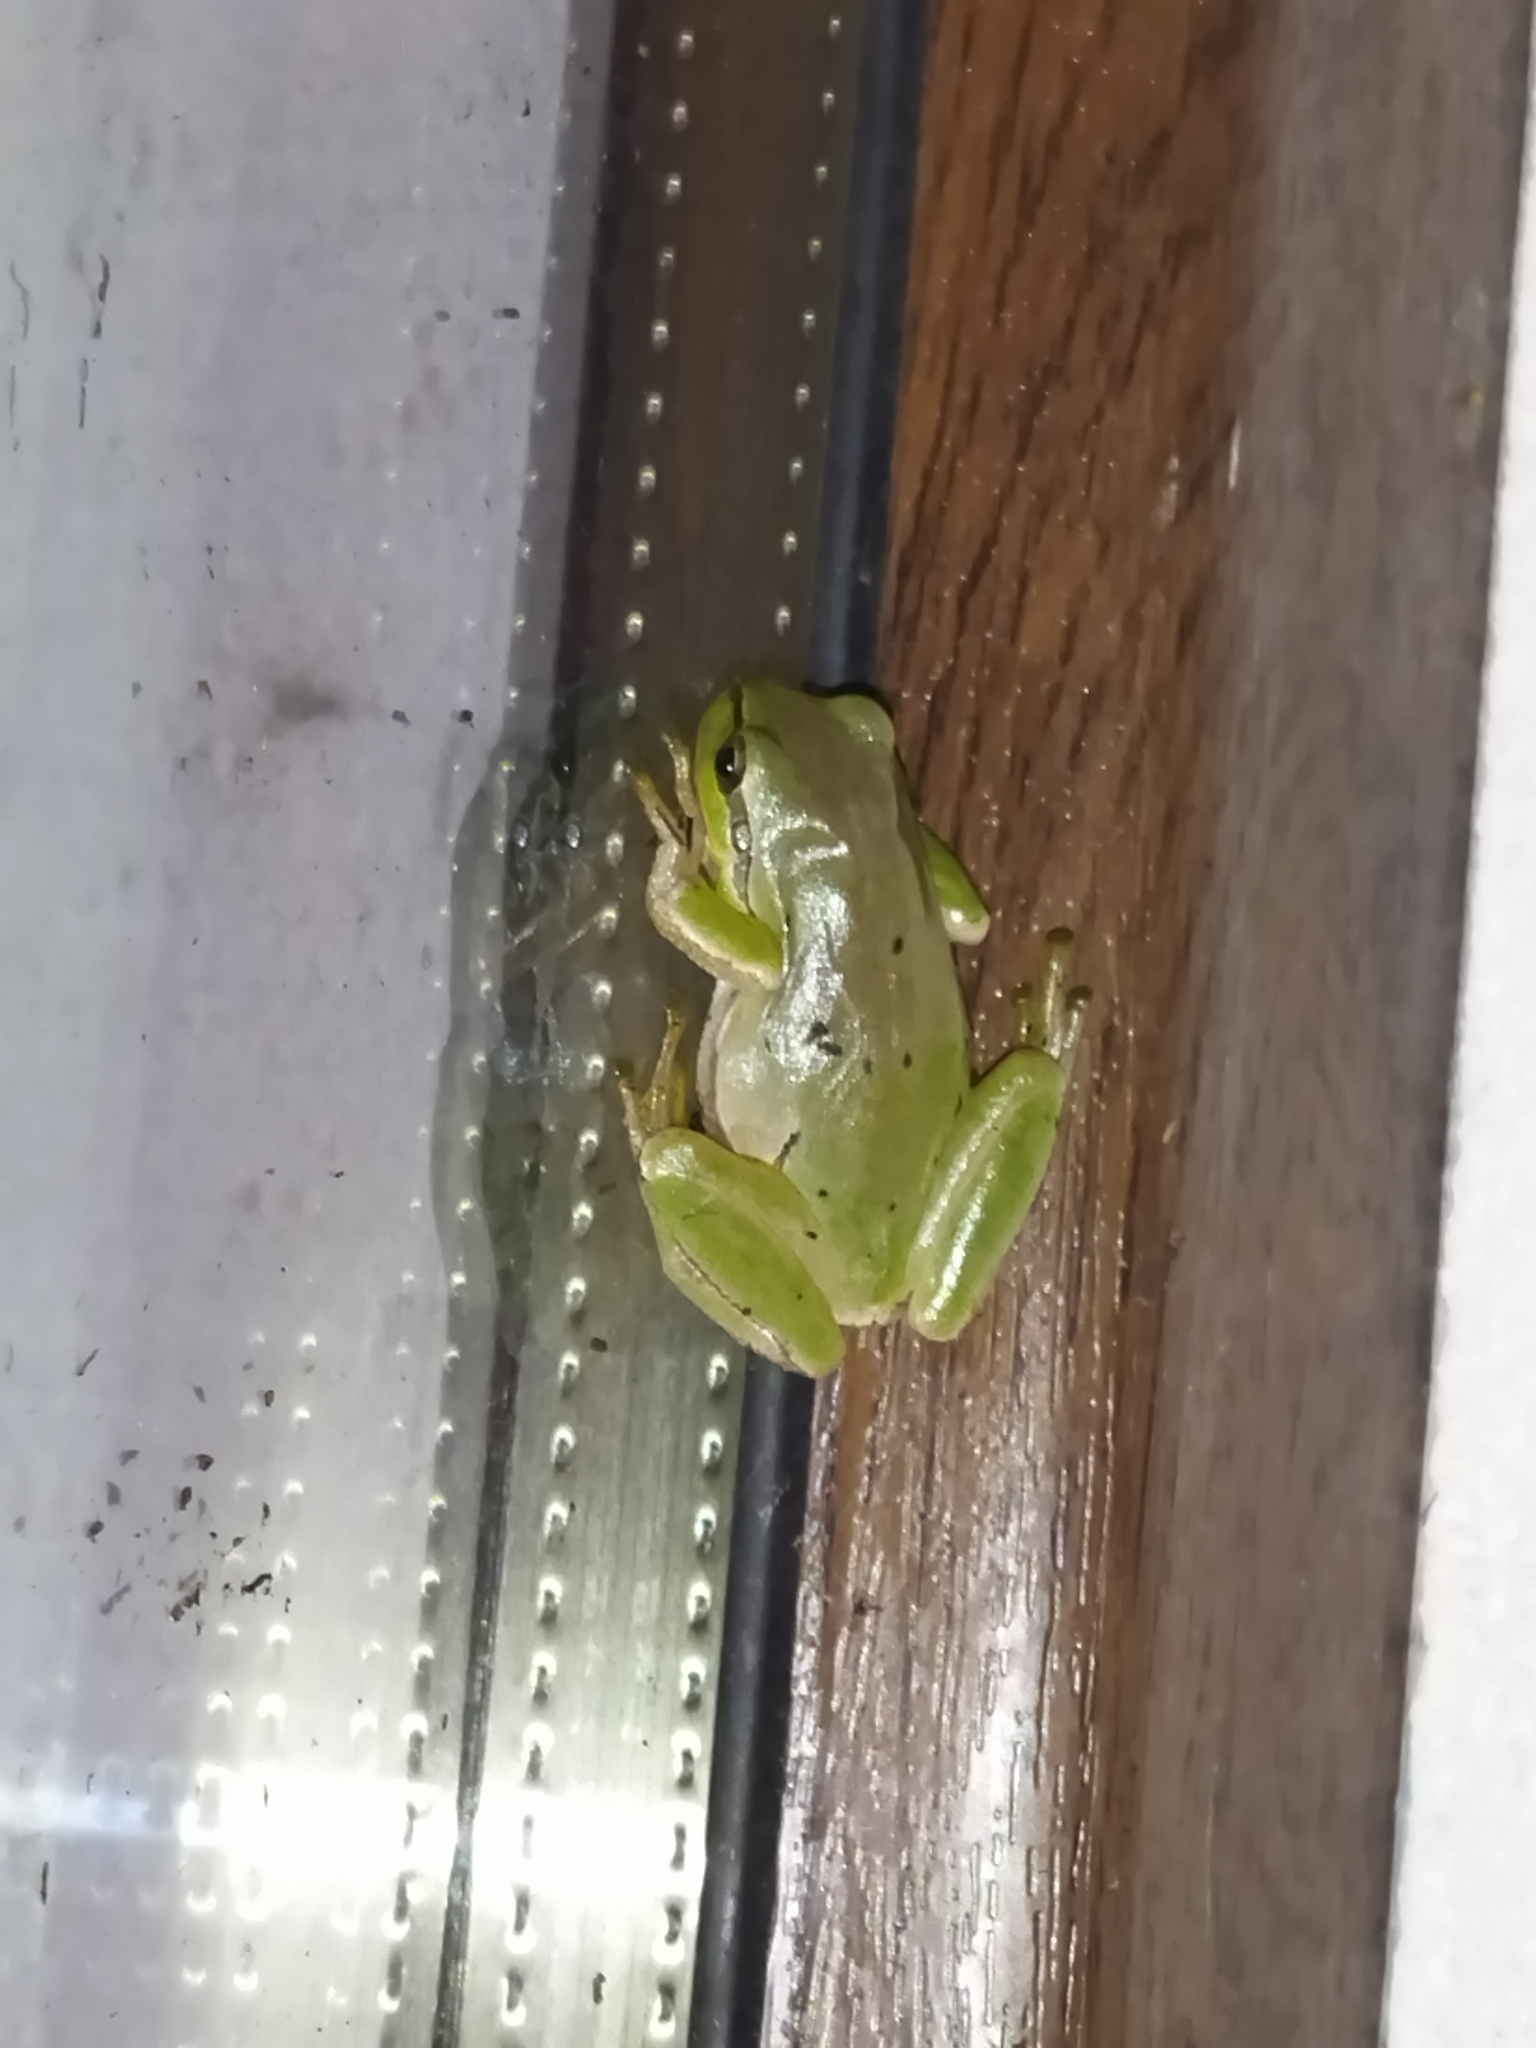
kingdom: Animalia
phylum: Chordata
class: Amphibia
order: Anura
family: Hylidae
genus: Hyla
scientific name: Hyla orientalis
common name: Caucasian treefrog
